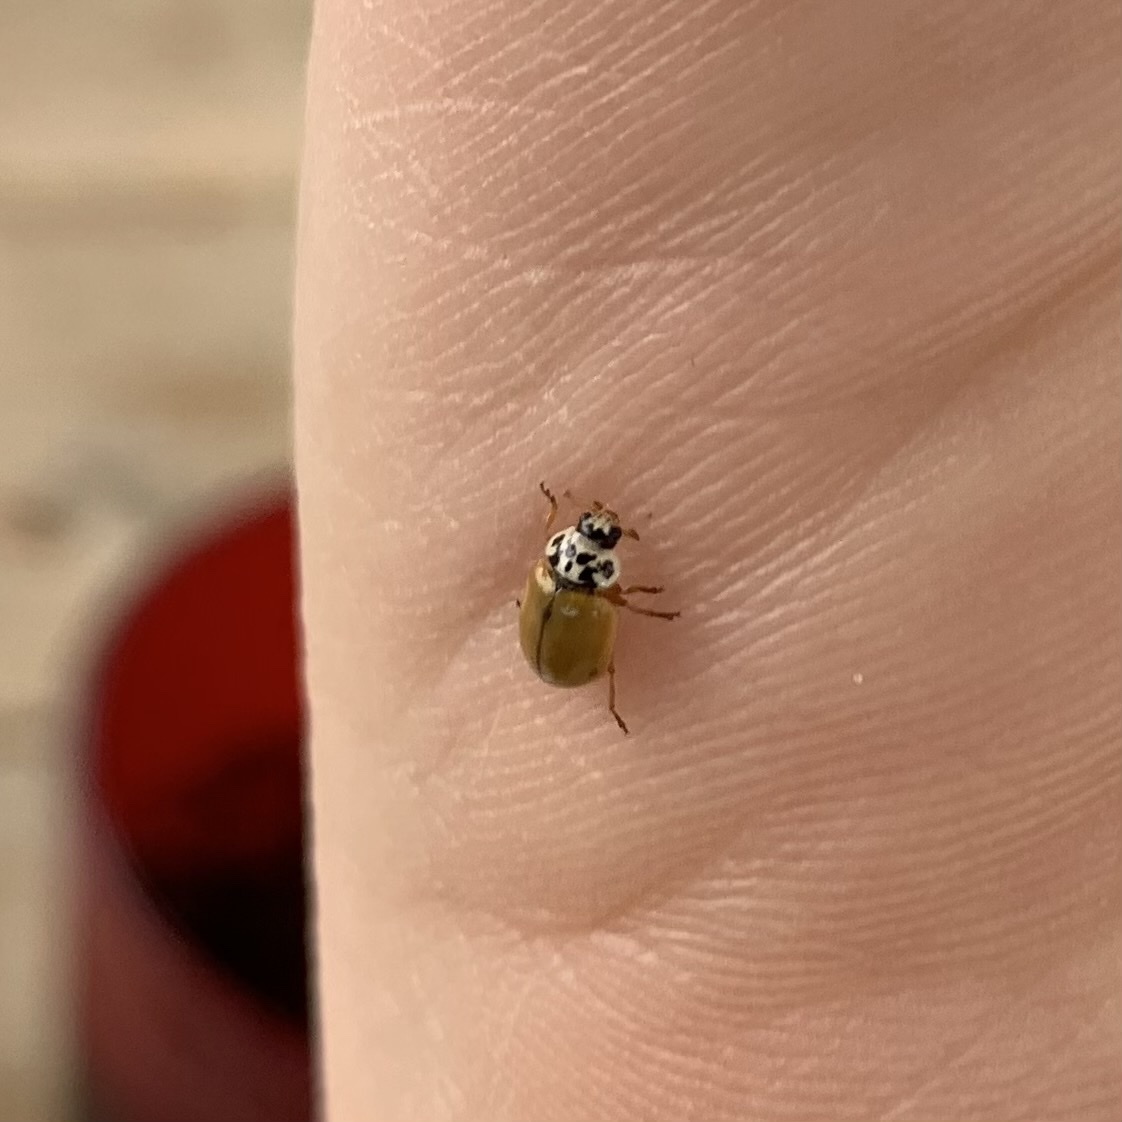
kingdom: Animalia
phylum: Arthropoda
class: Insecta
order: Coleoptera
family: Coccinellidae
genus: Mulsantina
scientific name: Mulsantina picta
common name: Painted ladybird
